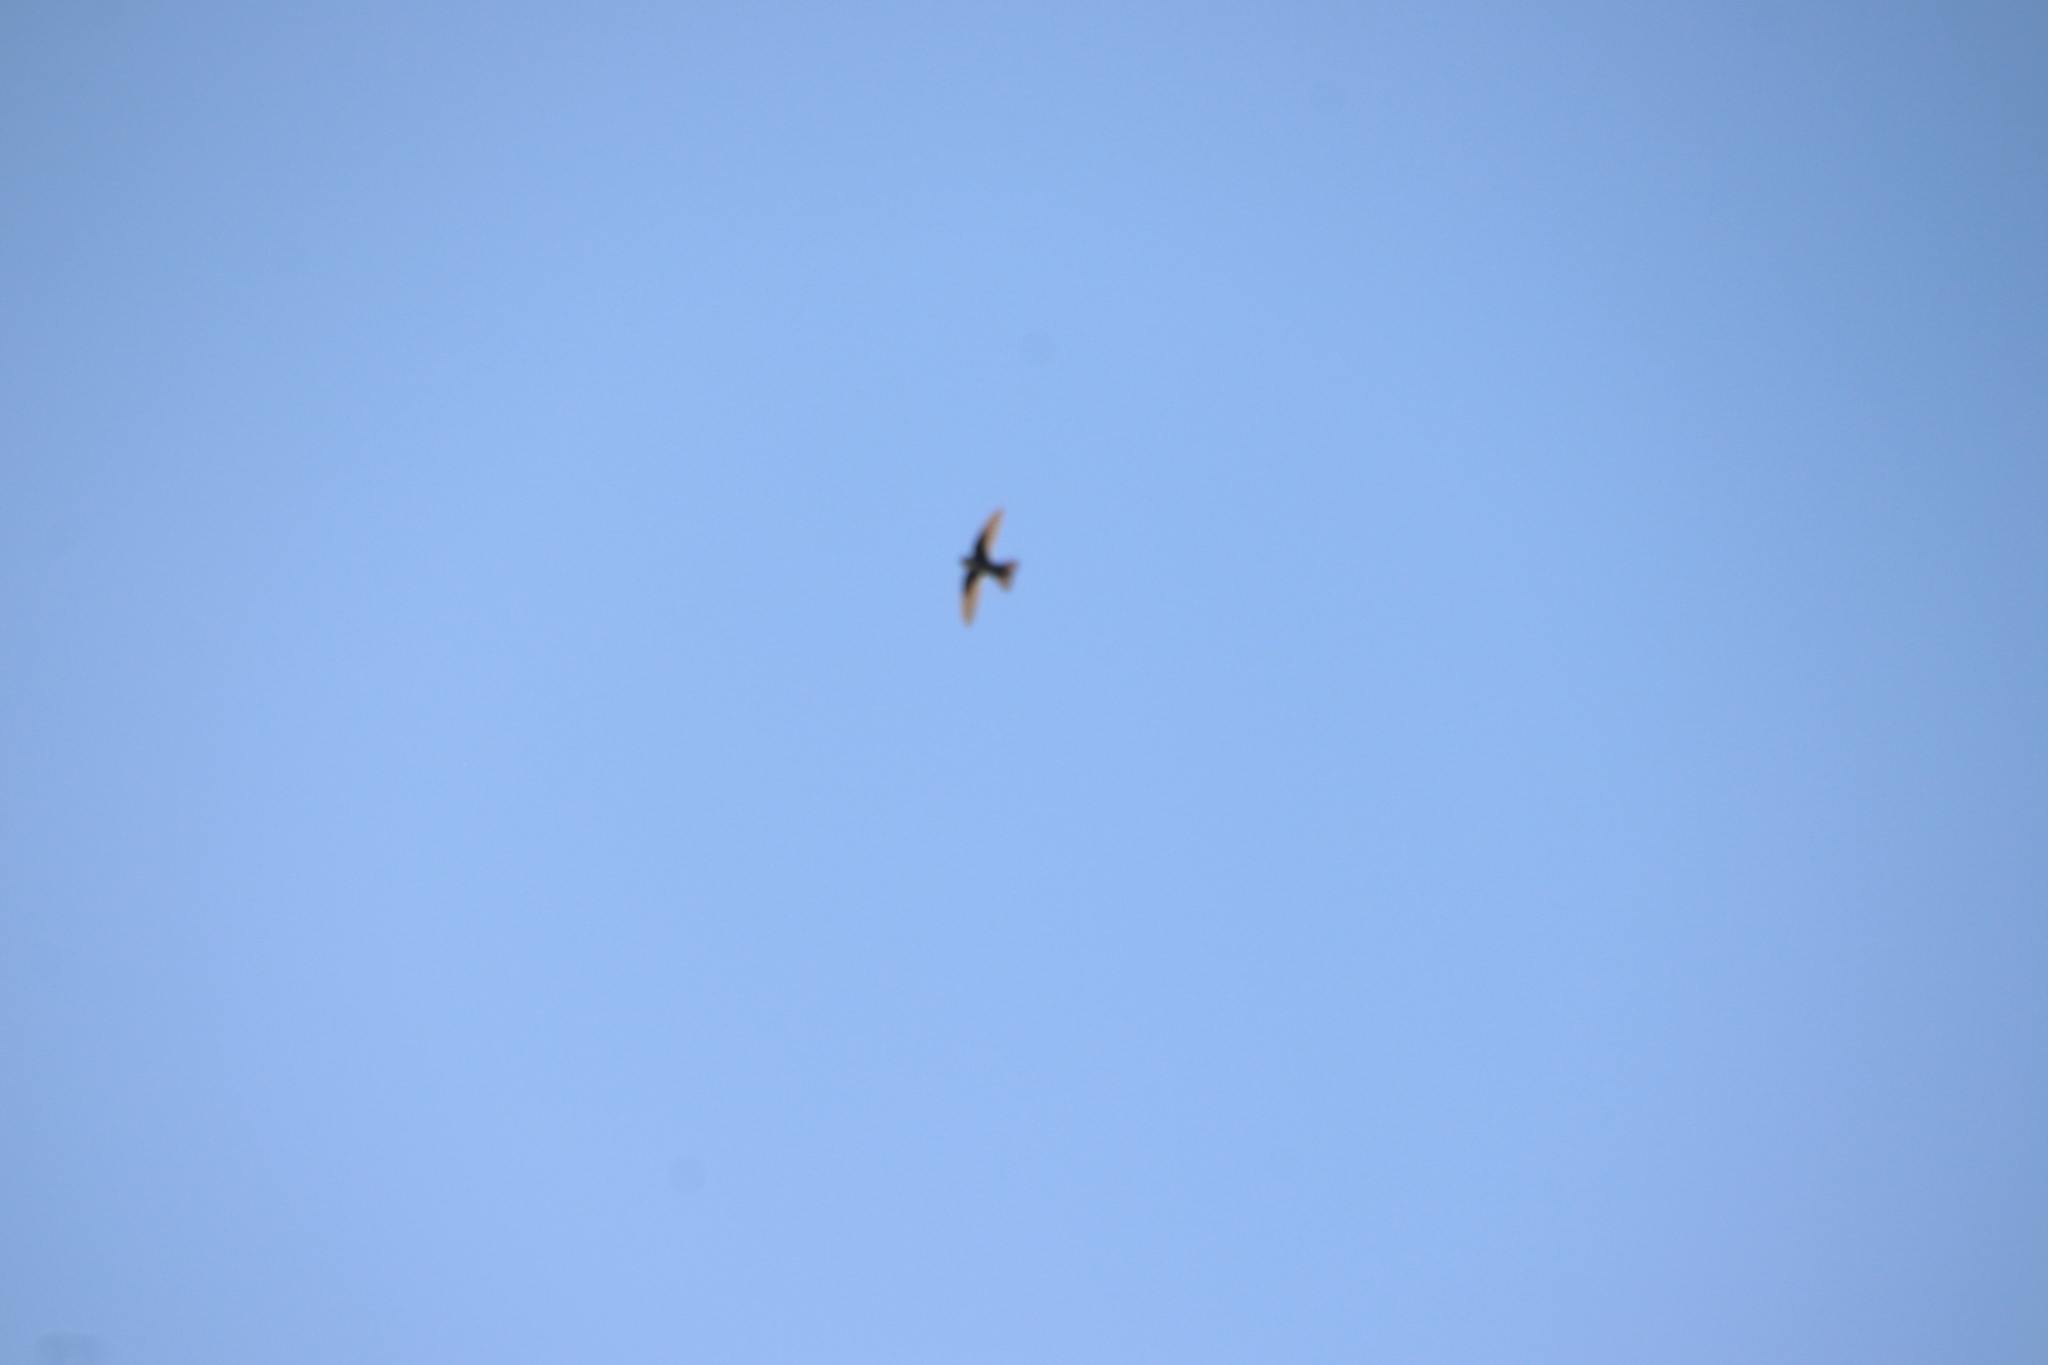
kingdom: Animalia
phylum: Chordata
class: Aves
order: Apodiformes
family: Apodidae
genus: Aeronautes
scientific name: Aeronautes saxatalis
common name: White-throated swift
